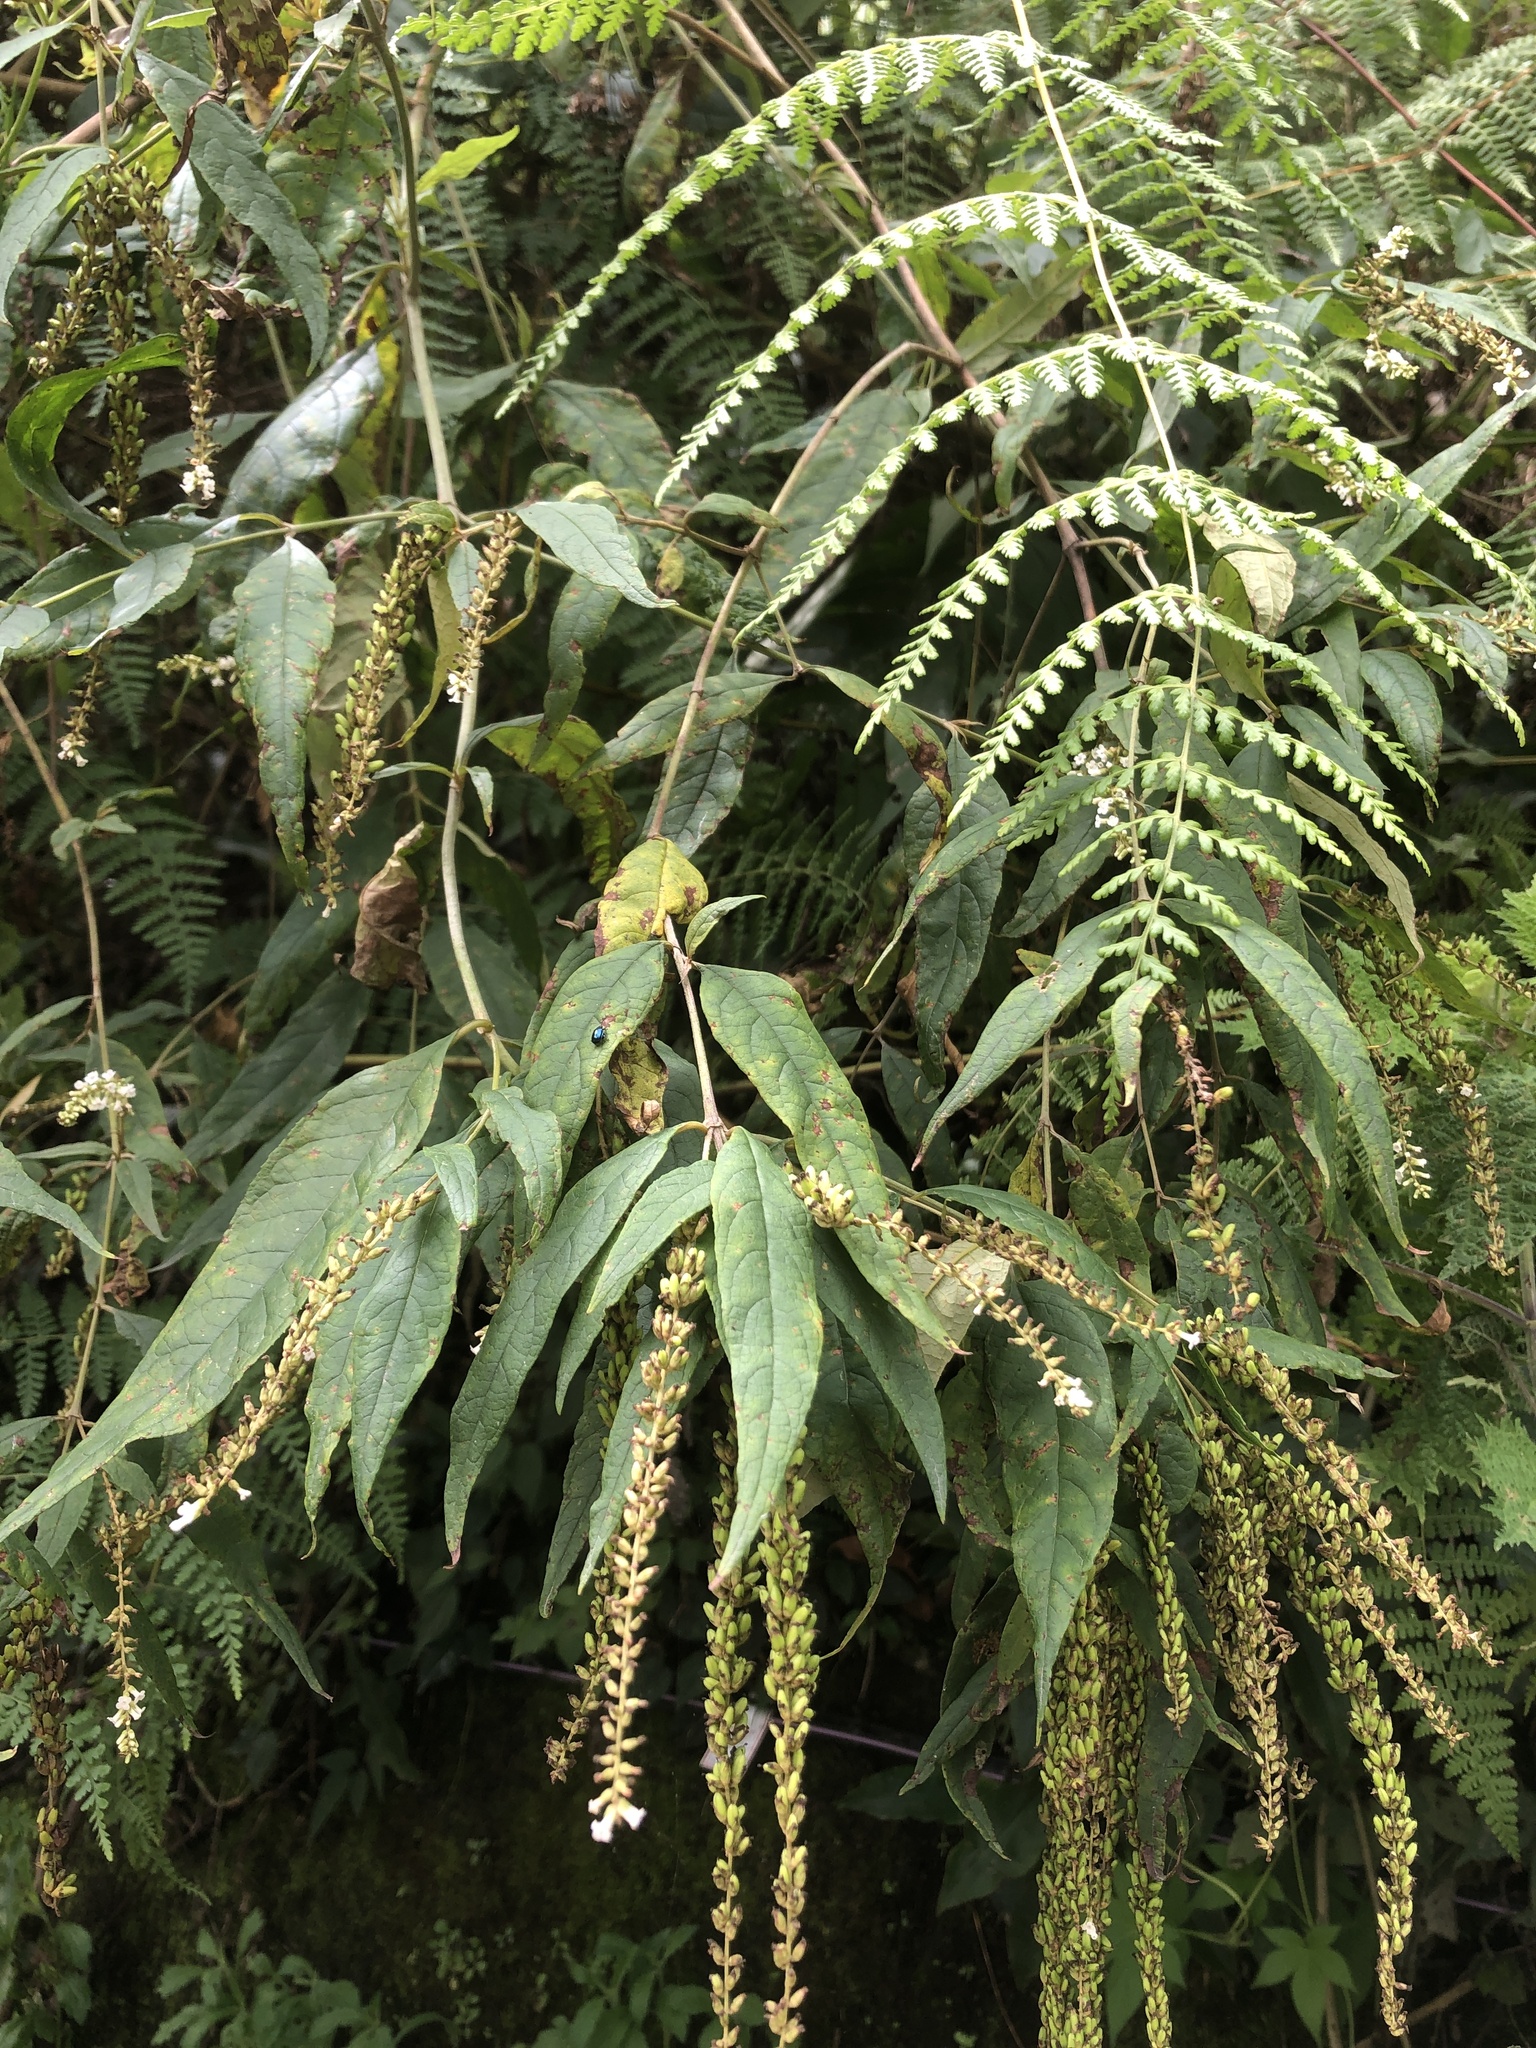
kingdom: Plantae
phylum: Tracheophyta
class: Magnoliopsida
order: Lamiales
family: Scrophulariaceae
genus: Buddleja
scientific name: Buddleja asiatica
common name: Dog tail
